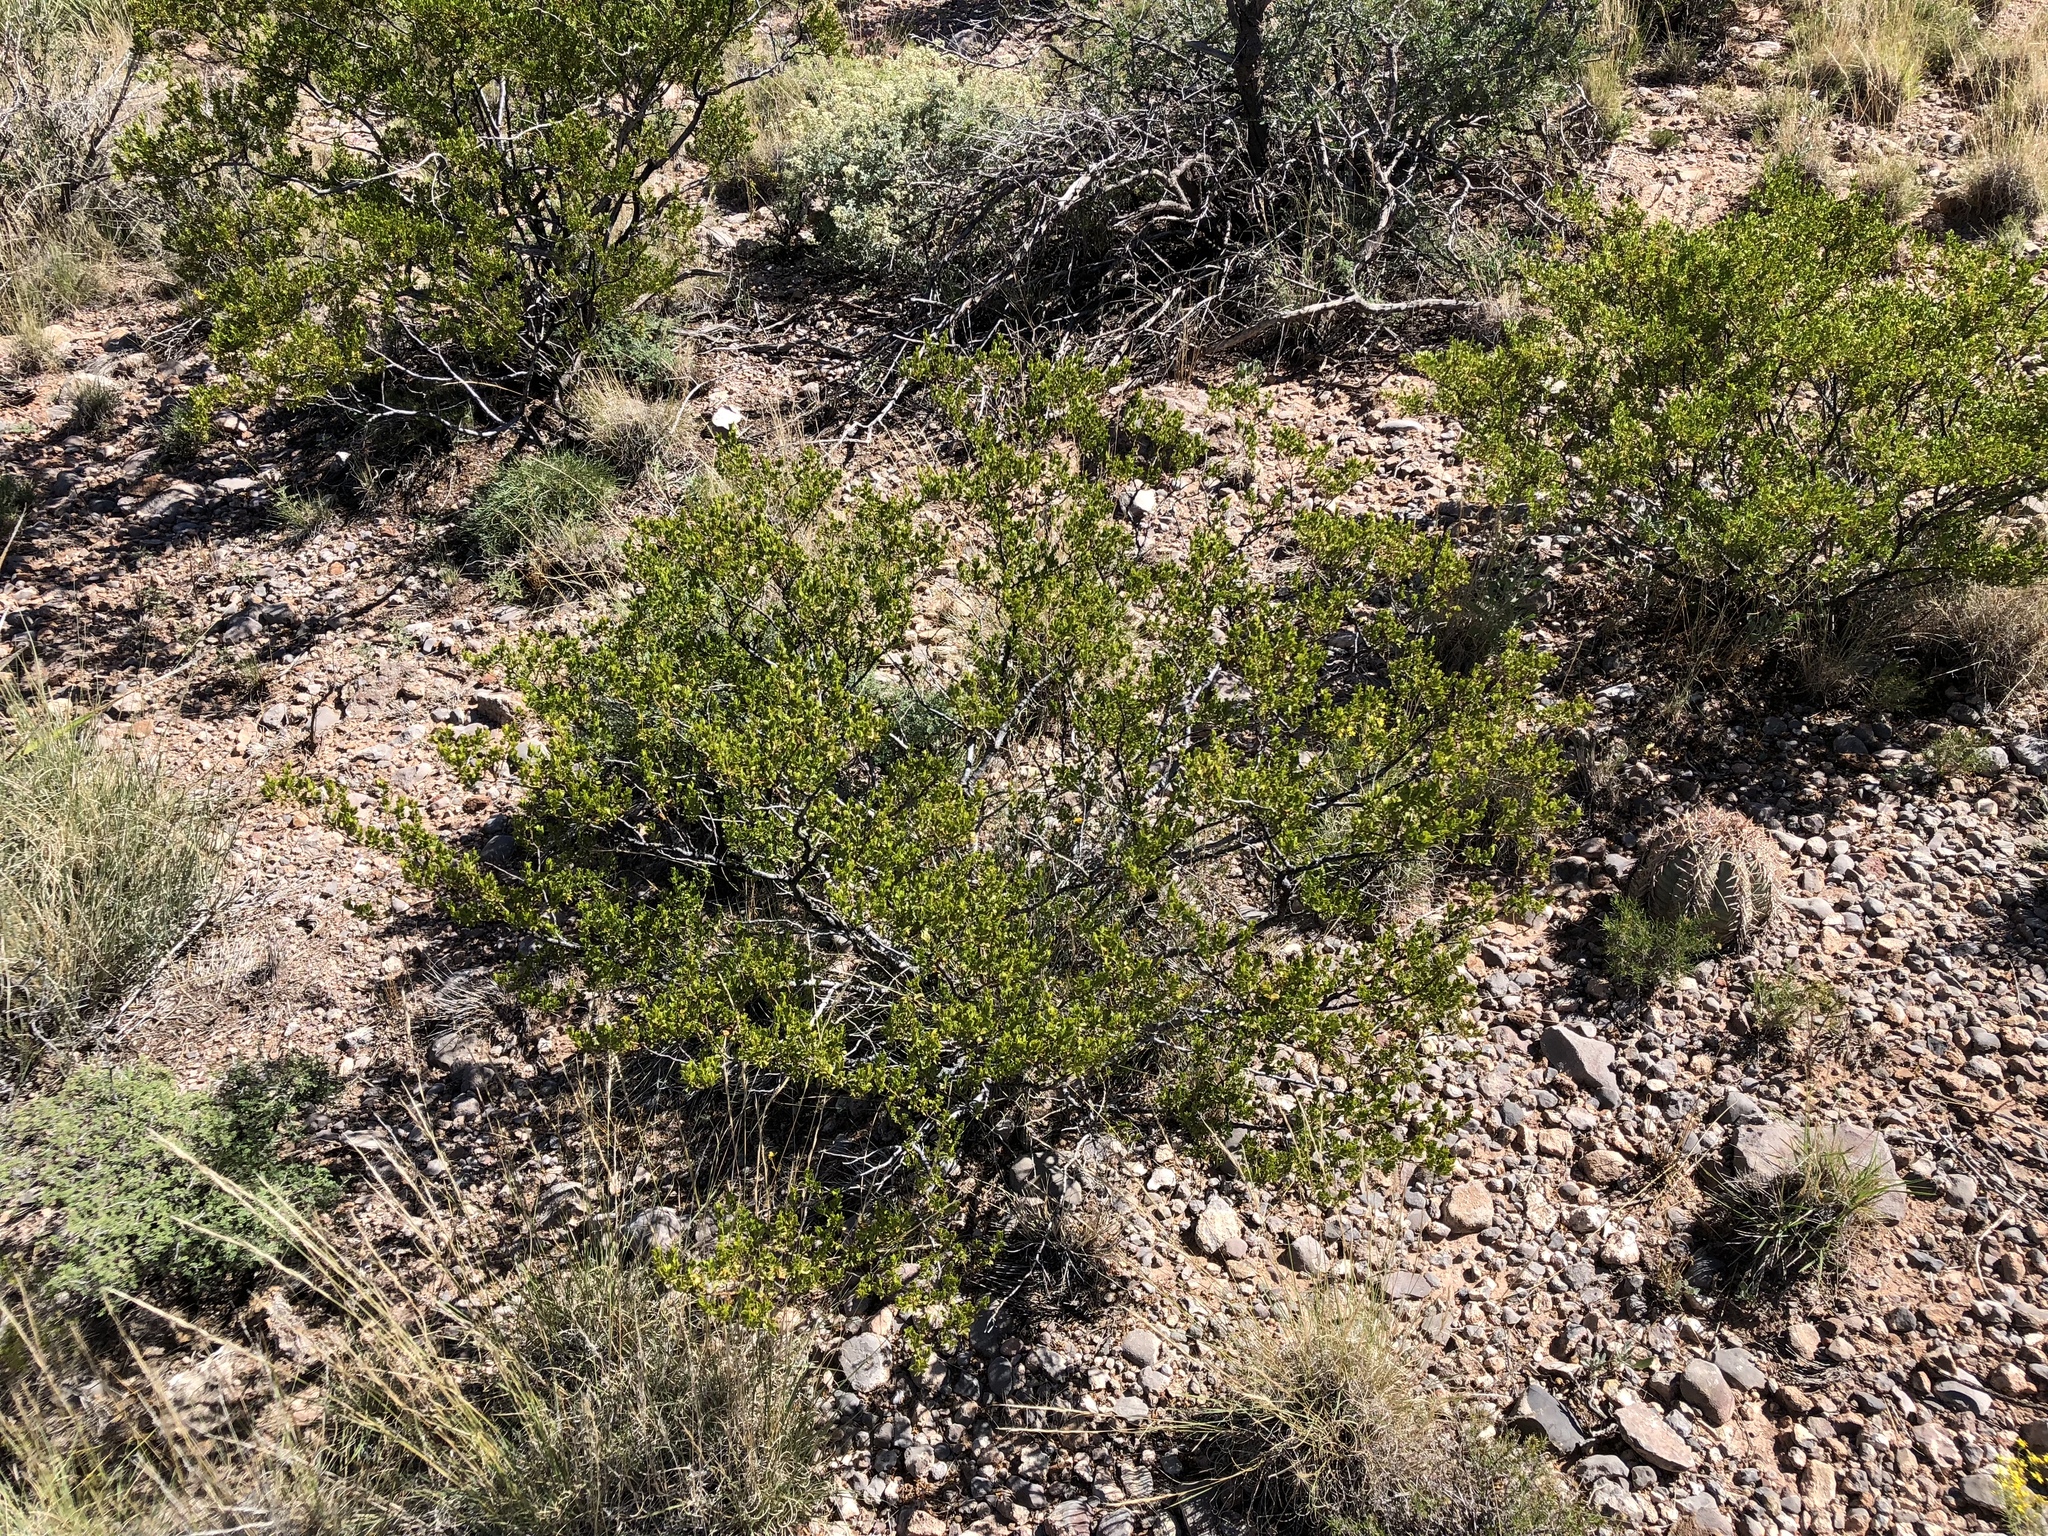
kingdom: Plantae
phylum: Tracheophyta
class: Magnoliopsida
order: Zygophyllales
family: Zygophyllaceae
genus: Larrea
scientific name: Larrea tridentata
